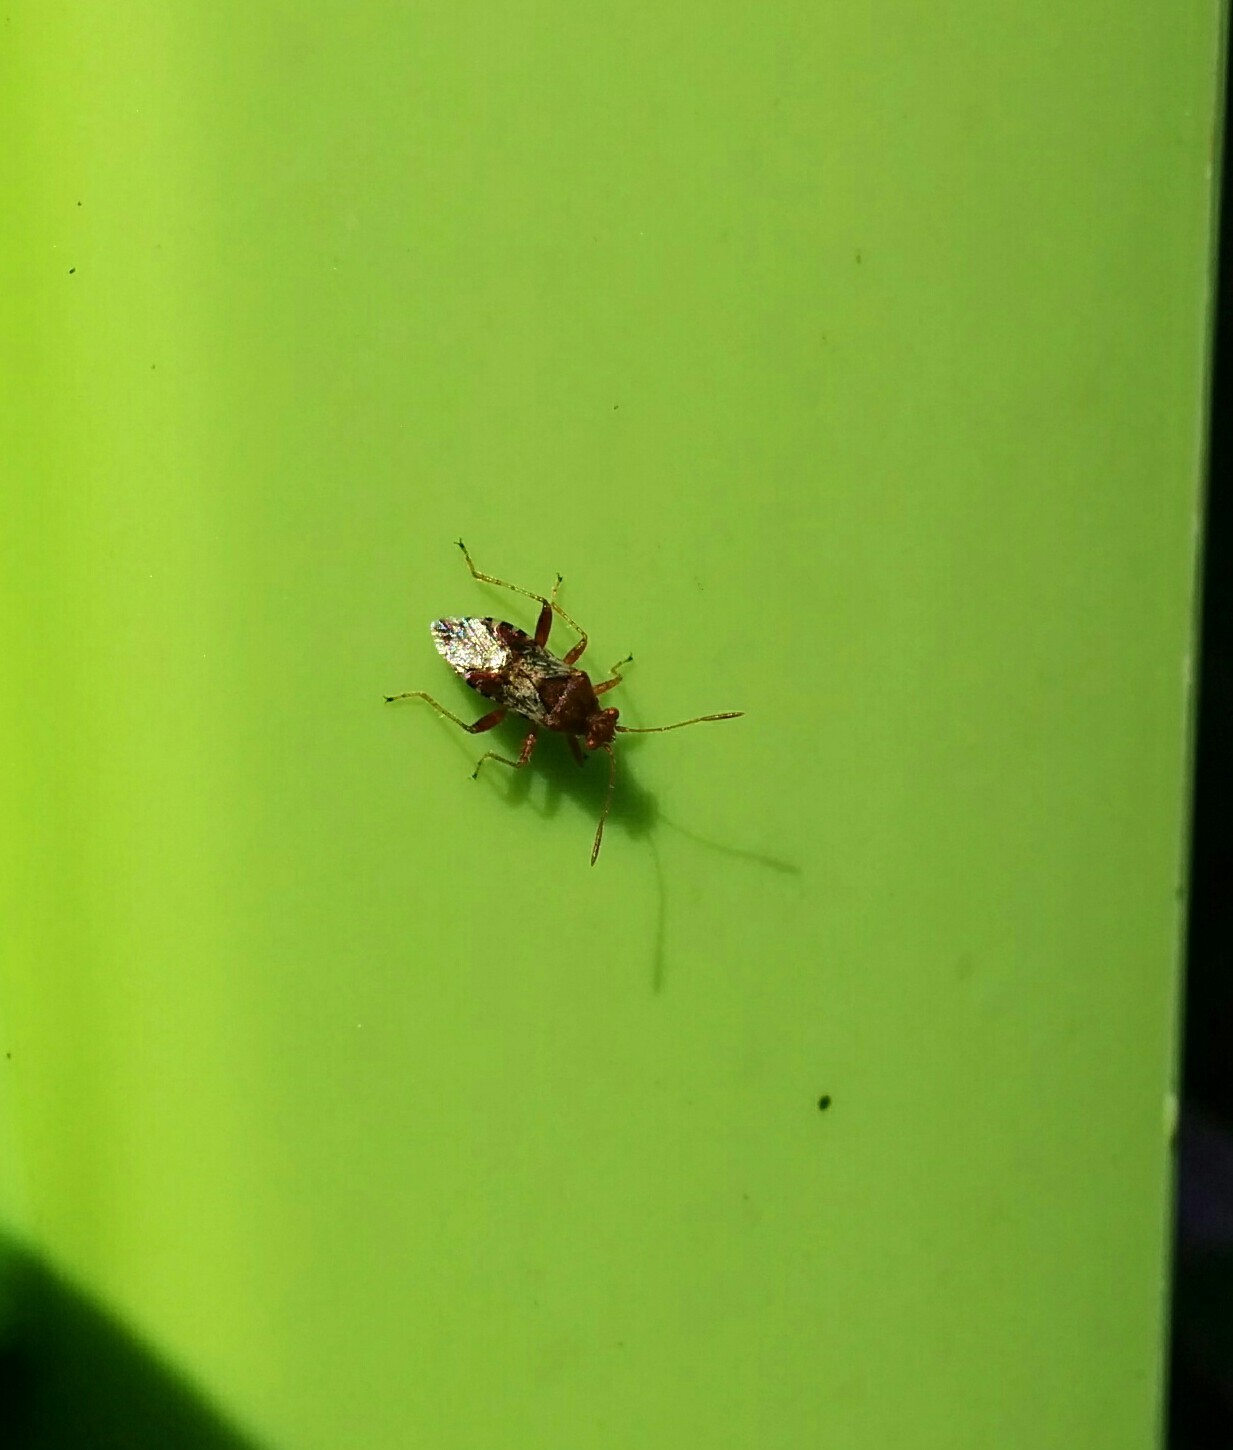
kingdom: Animalia
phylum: Arthropoda
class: Insecta
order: Hemiptera
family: Rhopalidae
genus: Rhopalus
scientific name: Rhopalus subrufus
